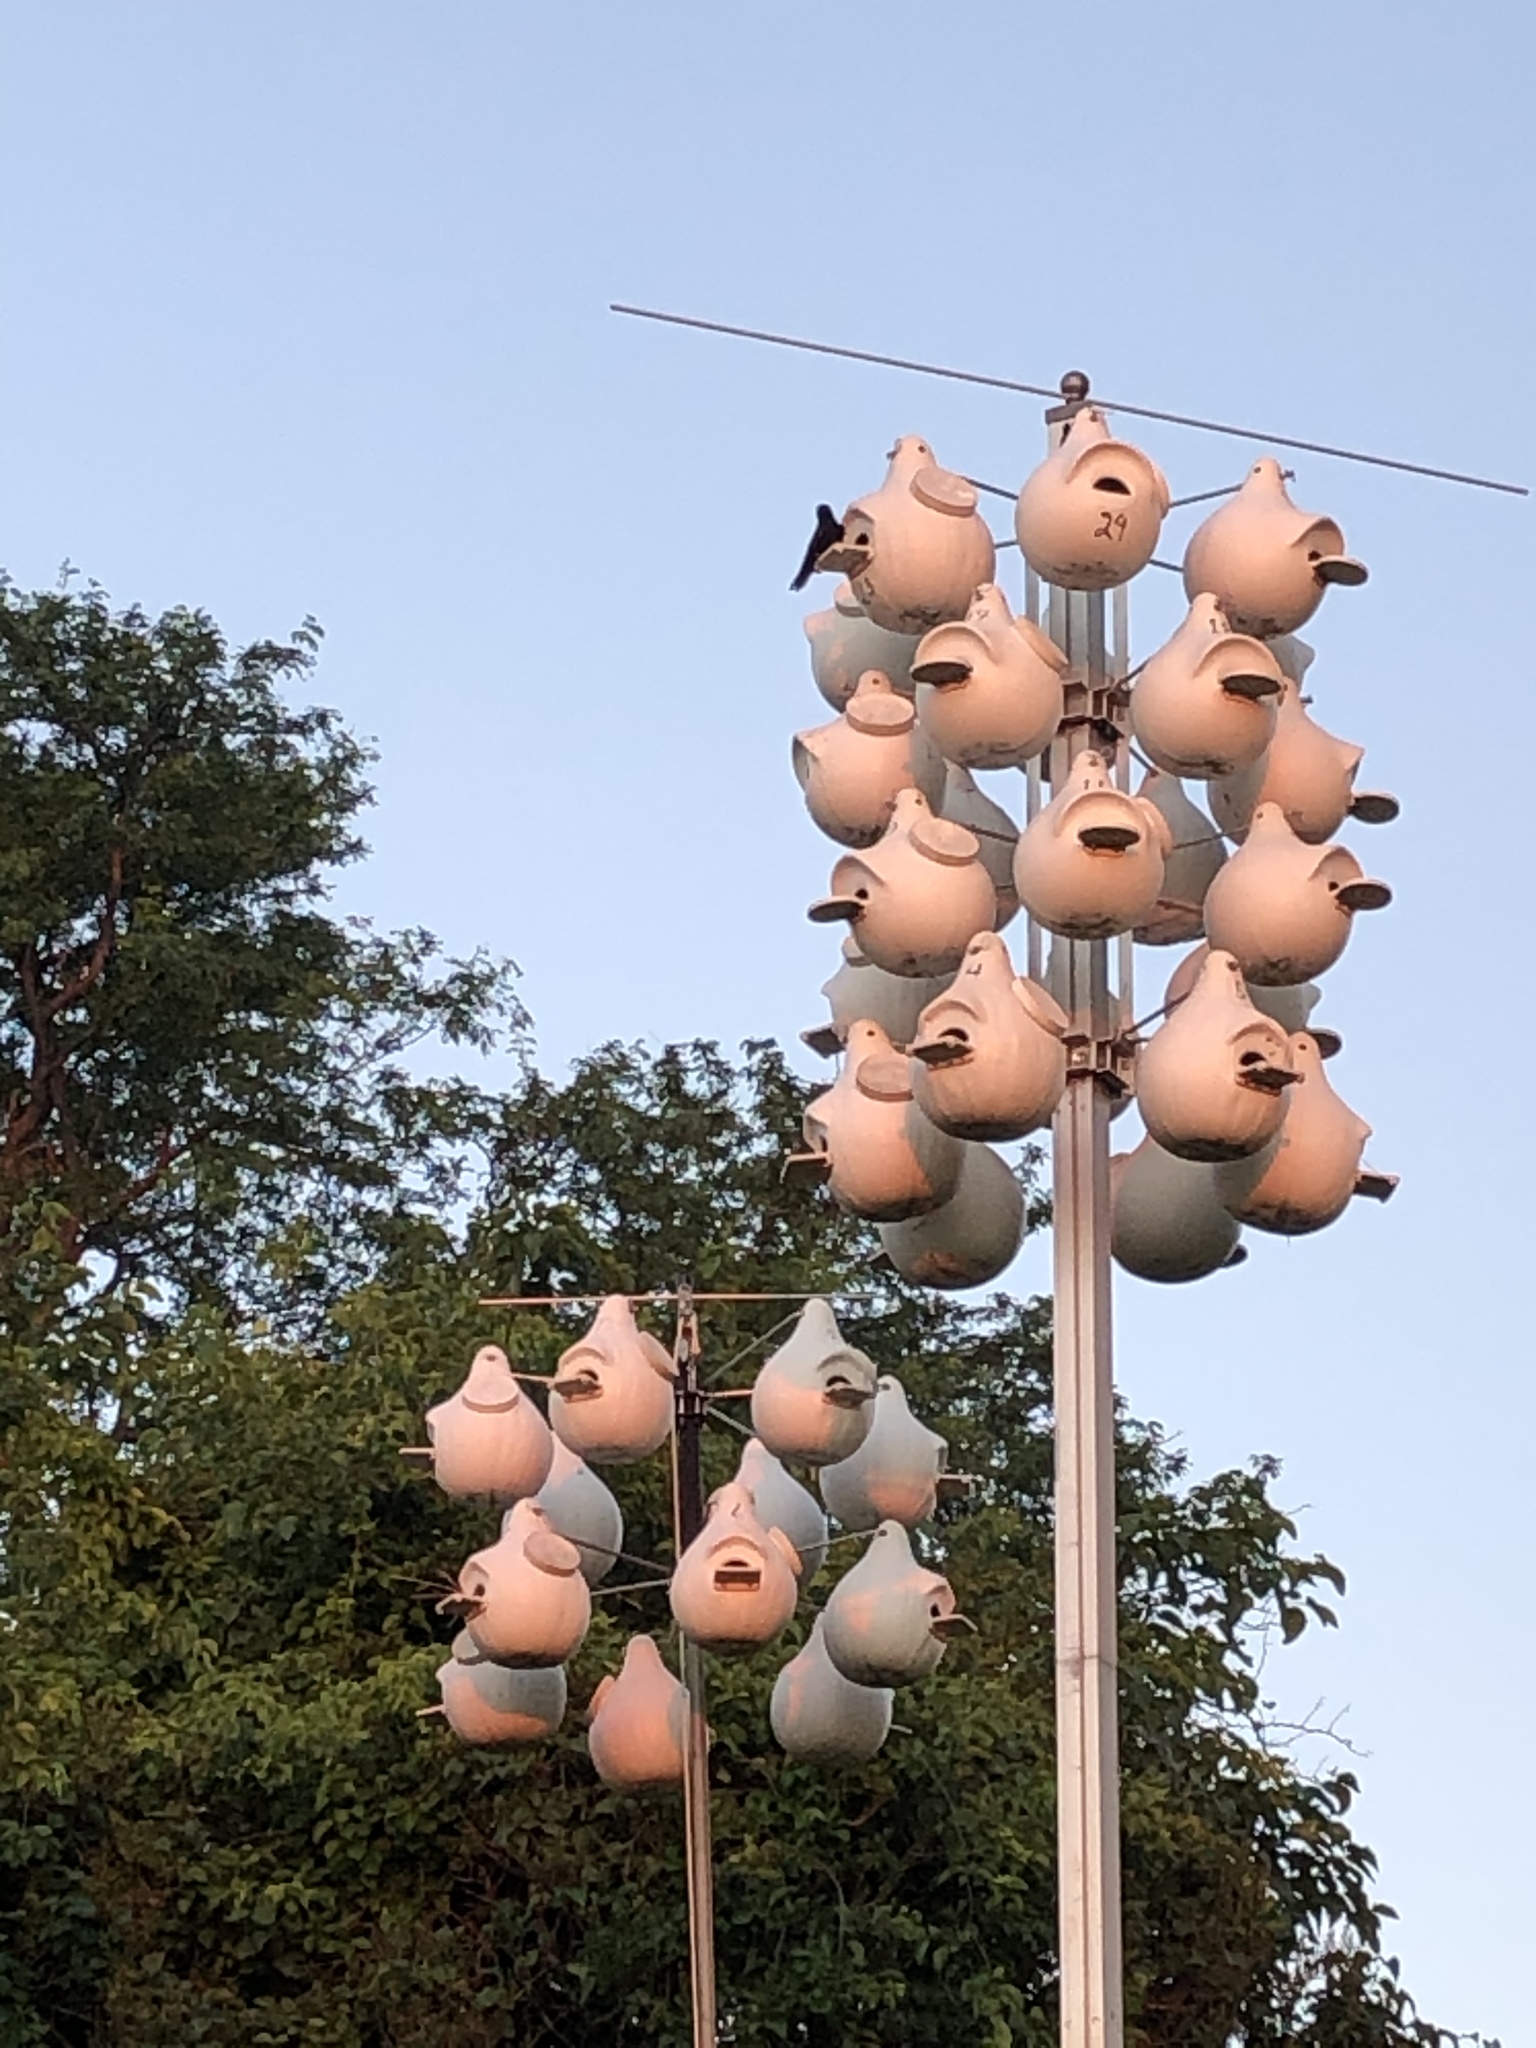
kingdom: Animalia
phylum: Chordata
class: Aves
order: Passeriformes
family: Hirundinidae
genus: Progne
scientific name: Progne subis
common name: Purple martin
